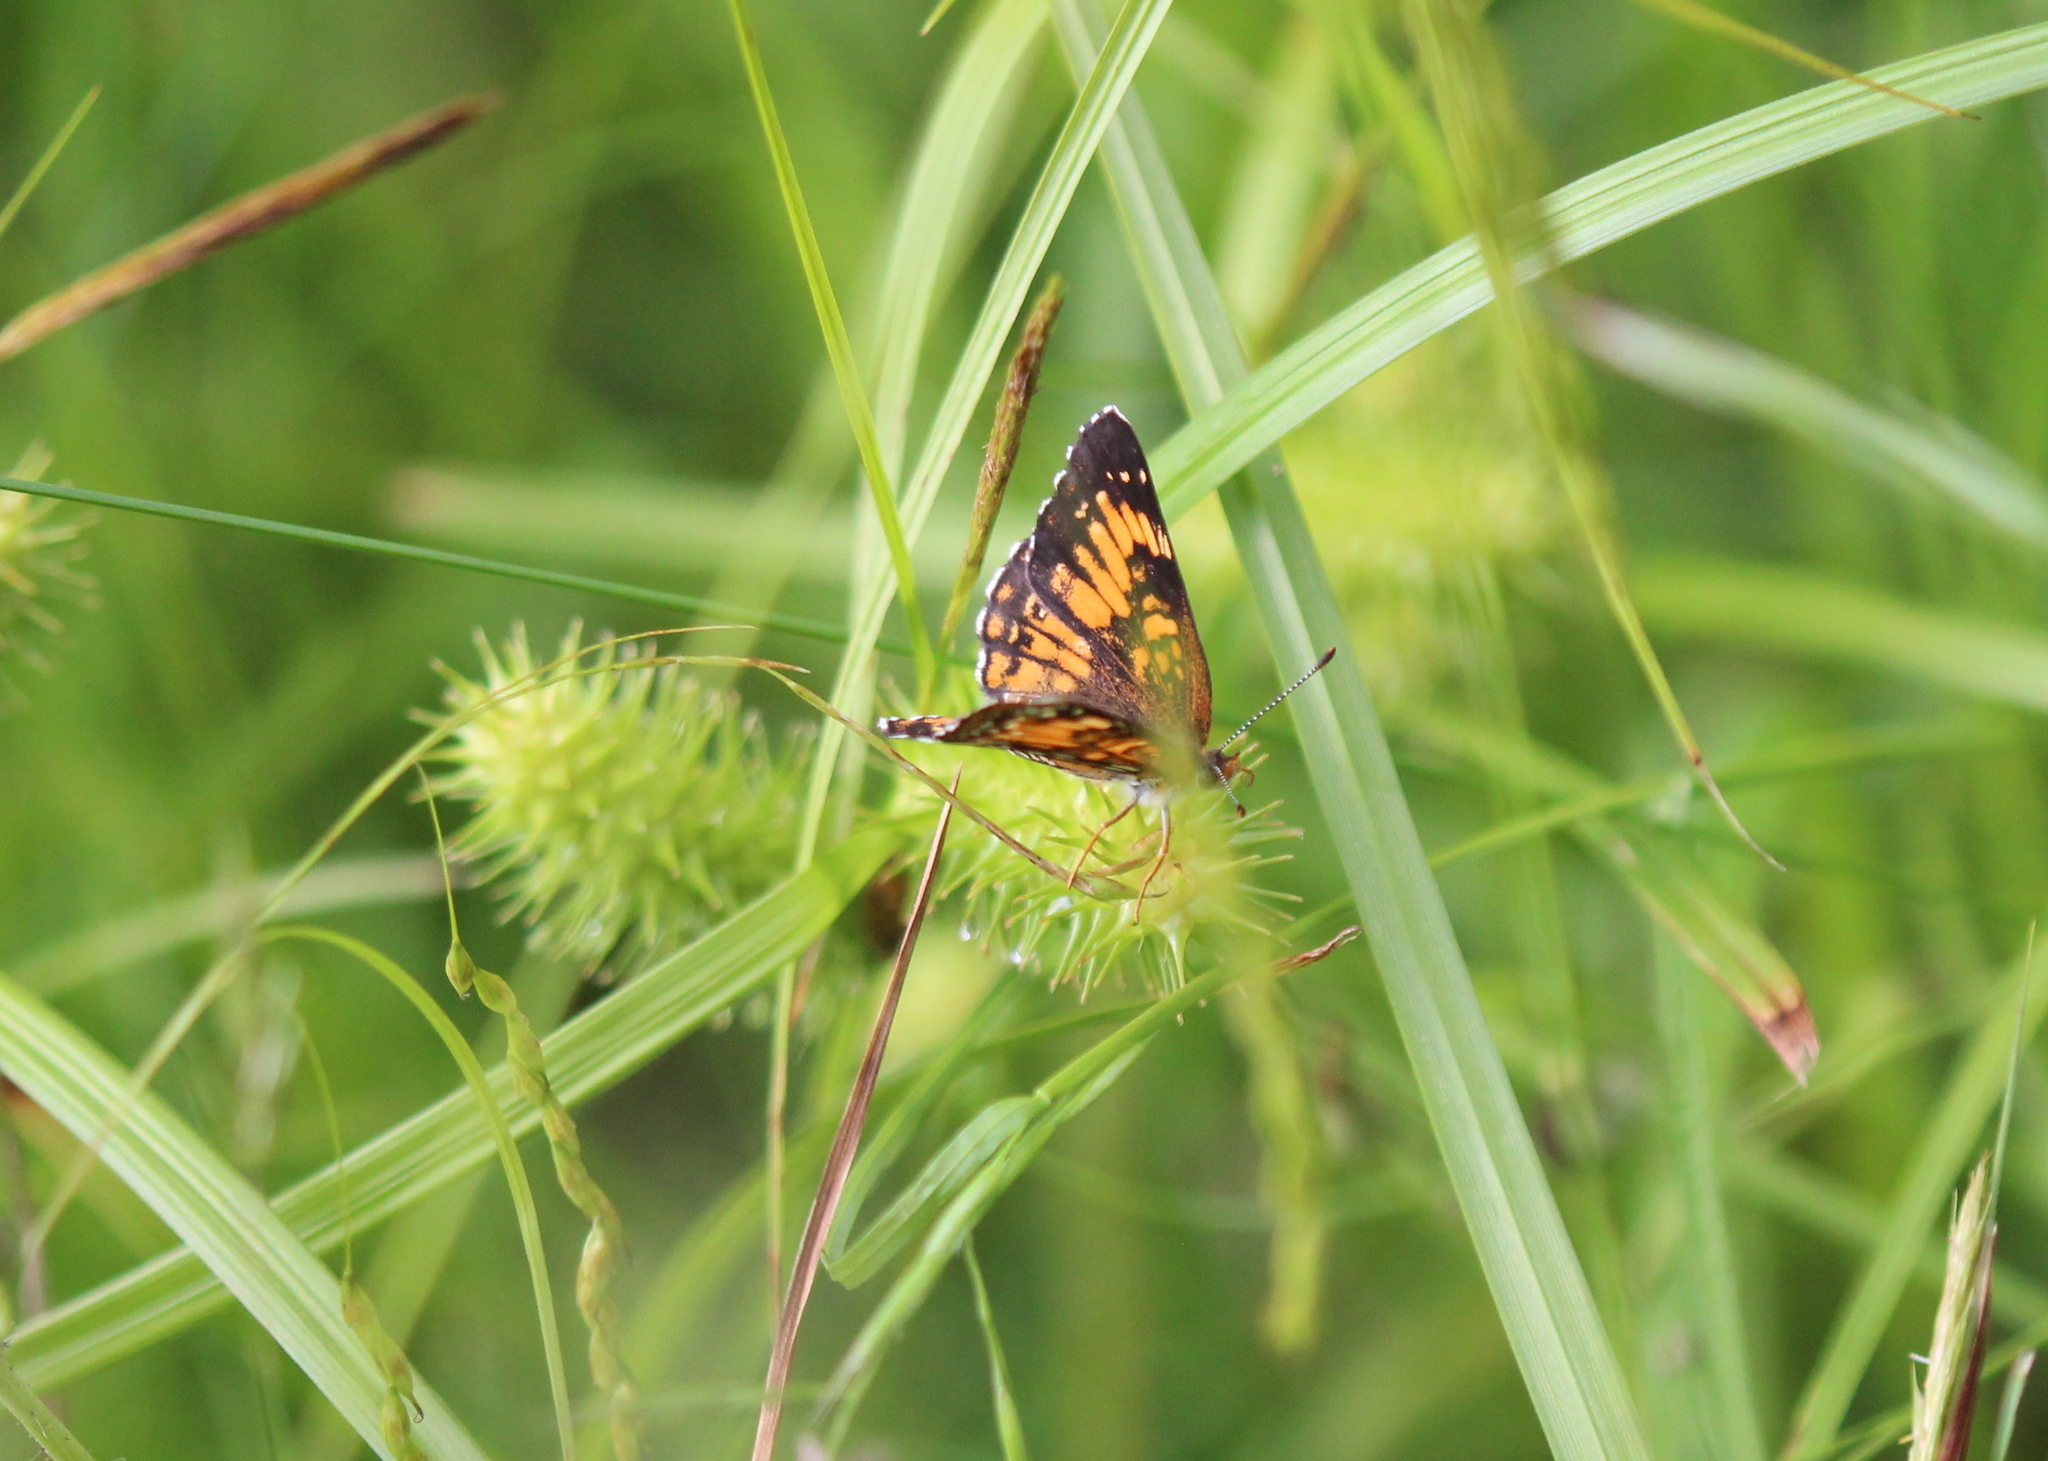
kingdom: Animalia
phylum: Arthropoda
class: Insecta
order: Lepidoptera
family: Nymphalidae
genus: Chlosyne
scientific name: Chlosyne harrisii
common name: Harris's checkerspot
